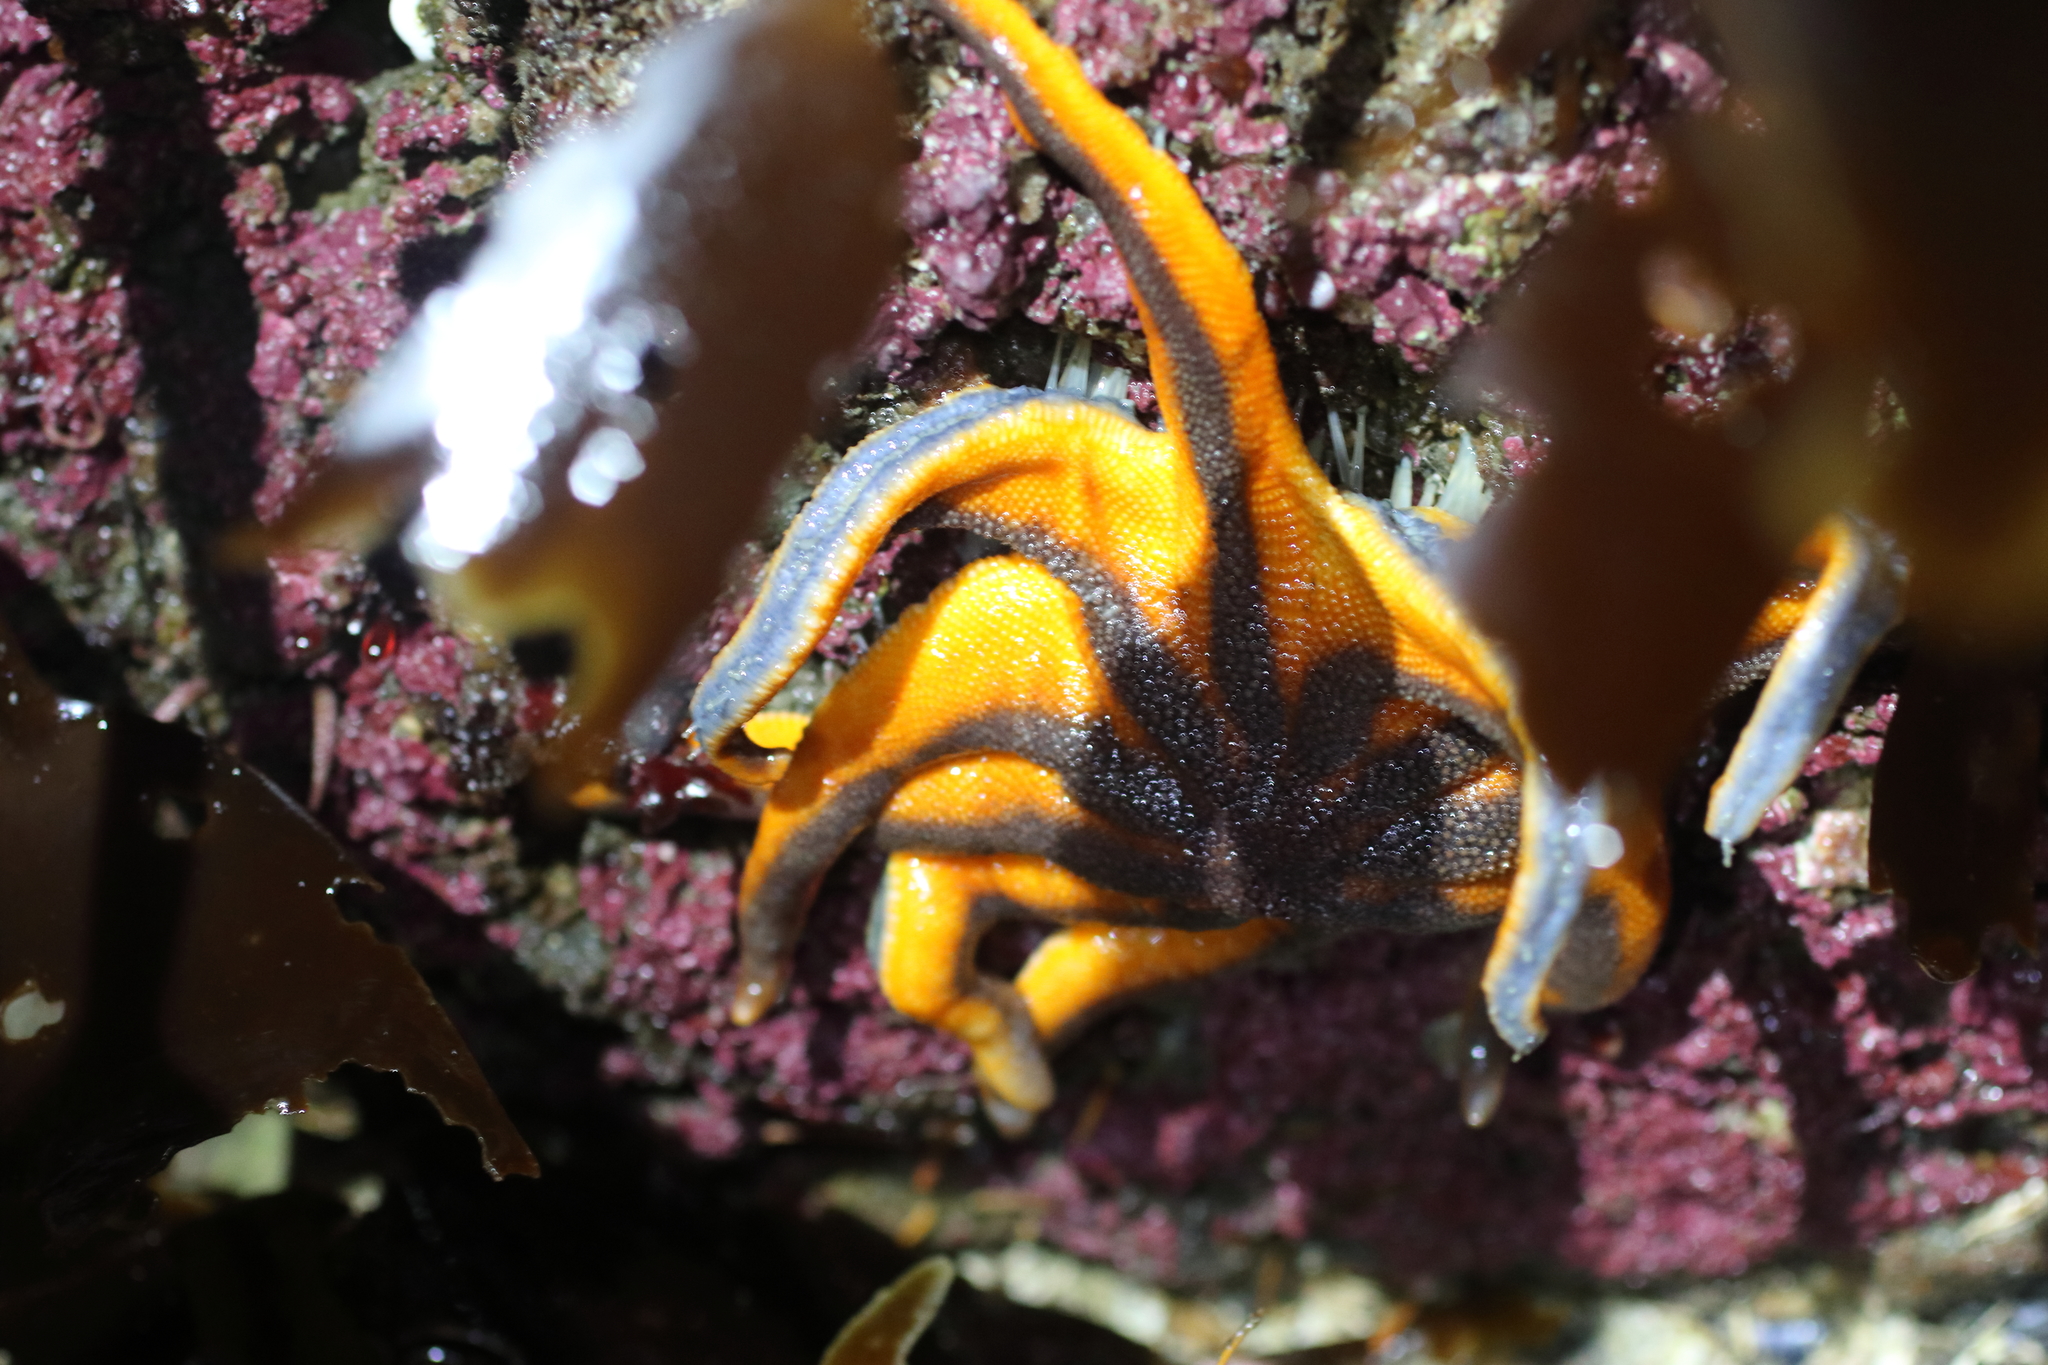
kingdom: Animalia
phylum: Echinodermata
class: Asteroidea
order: Valvatida
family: Solasteridae
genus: Solaster
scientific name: Solaster stimpsoni
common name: Orange sun star
